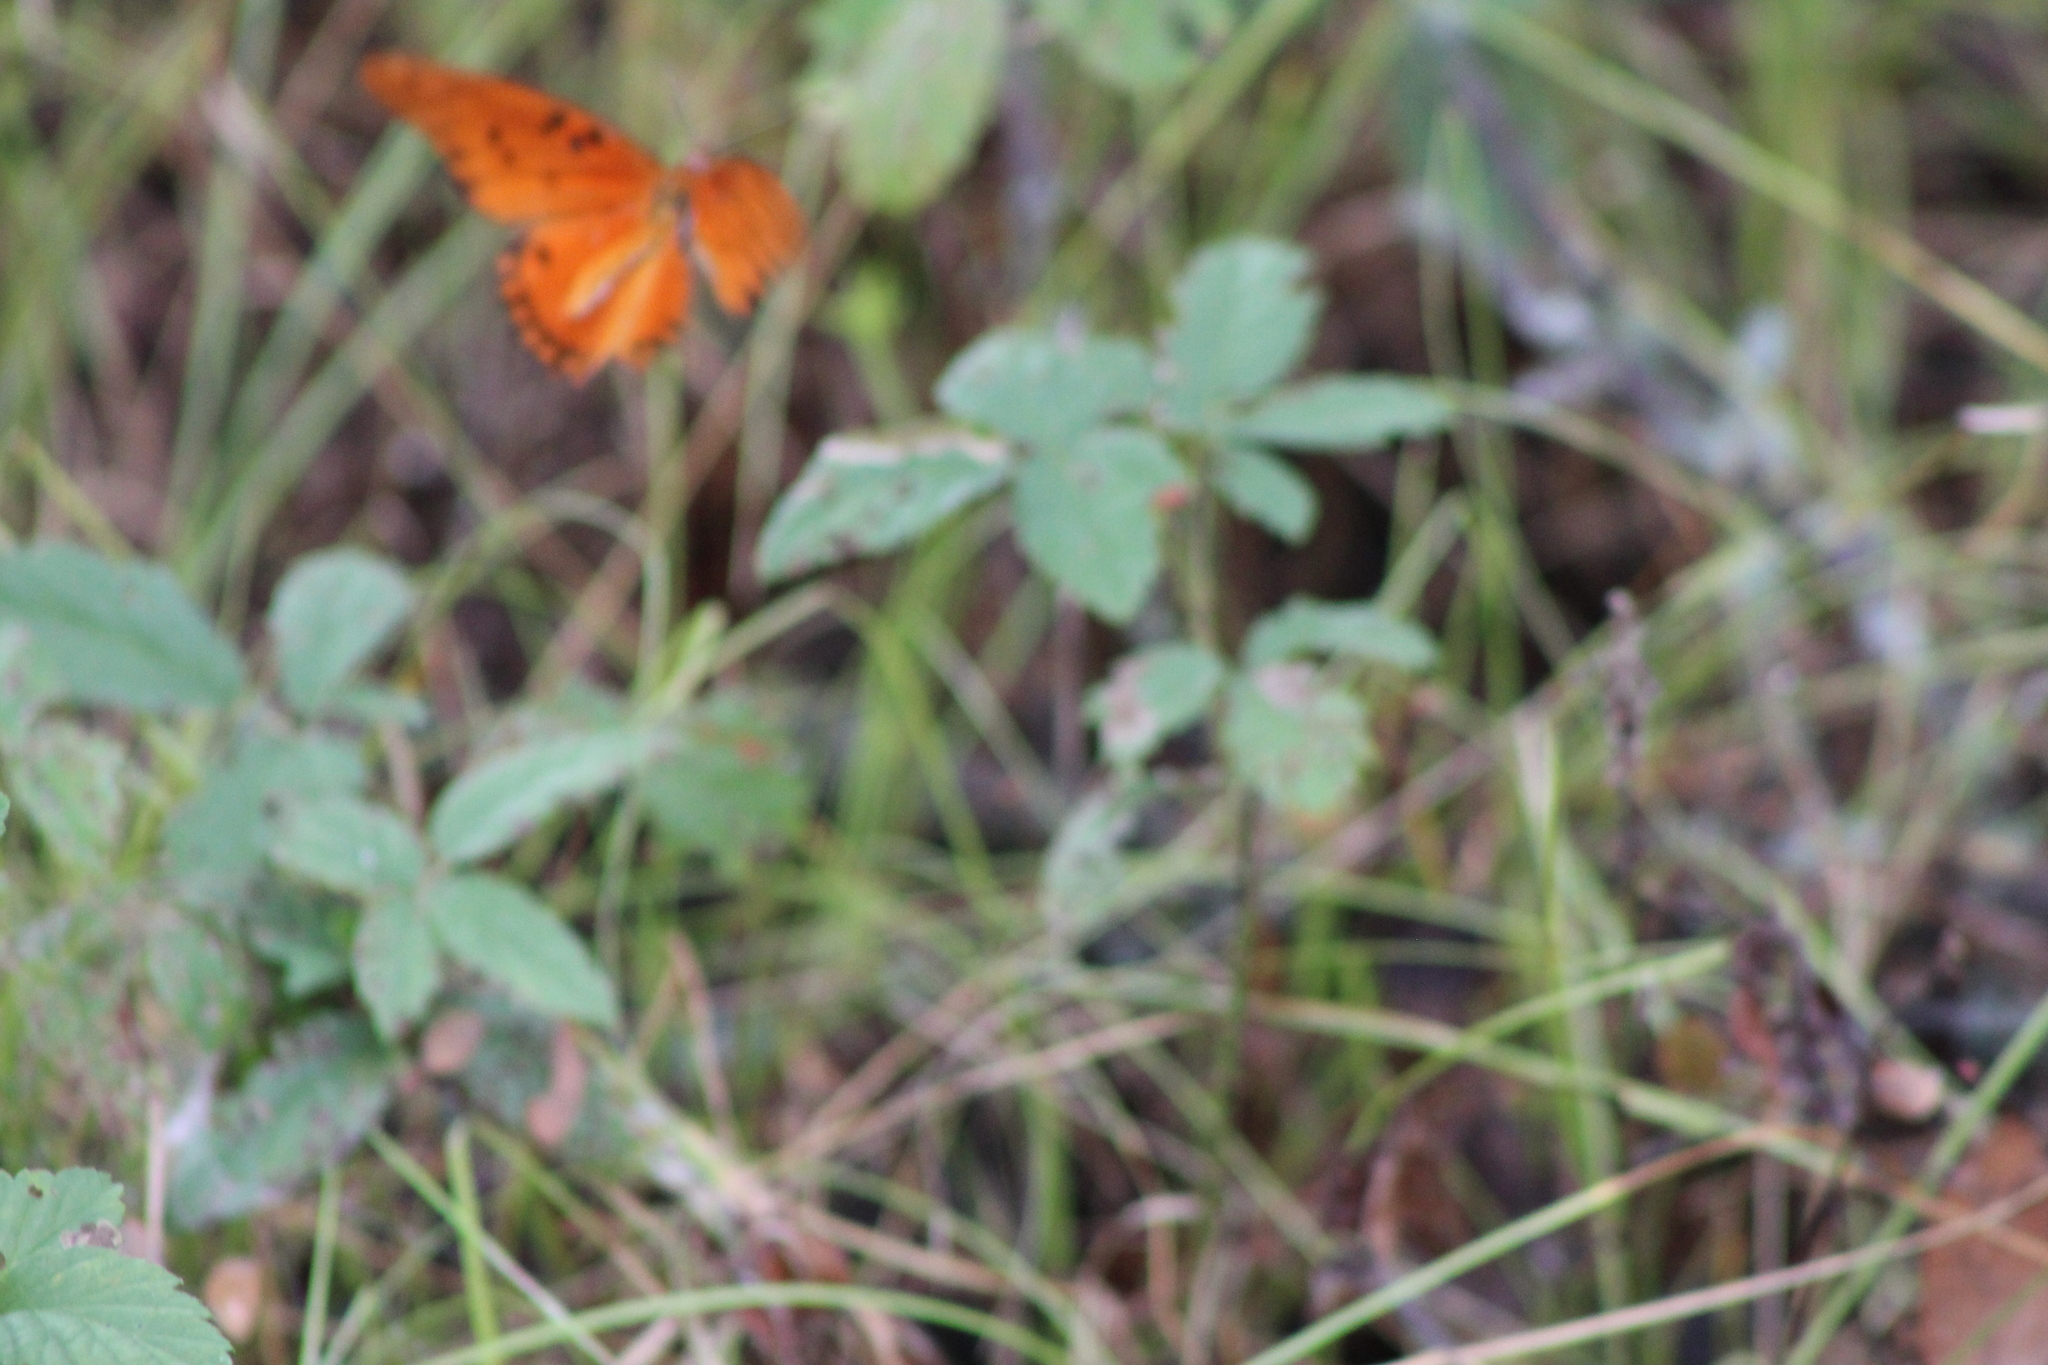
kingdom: Animalia
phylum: Arthropoda
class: Insecta
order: Lepidoptera
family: Nymphalidae
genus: Dione
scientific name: Dione vanillae
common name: Gulf fritillary
